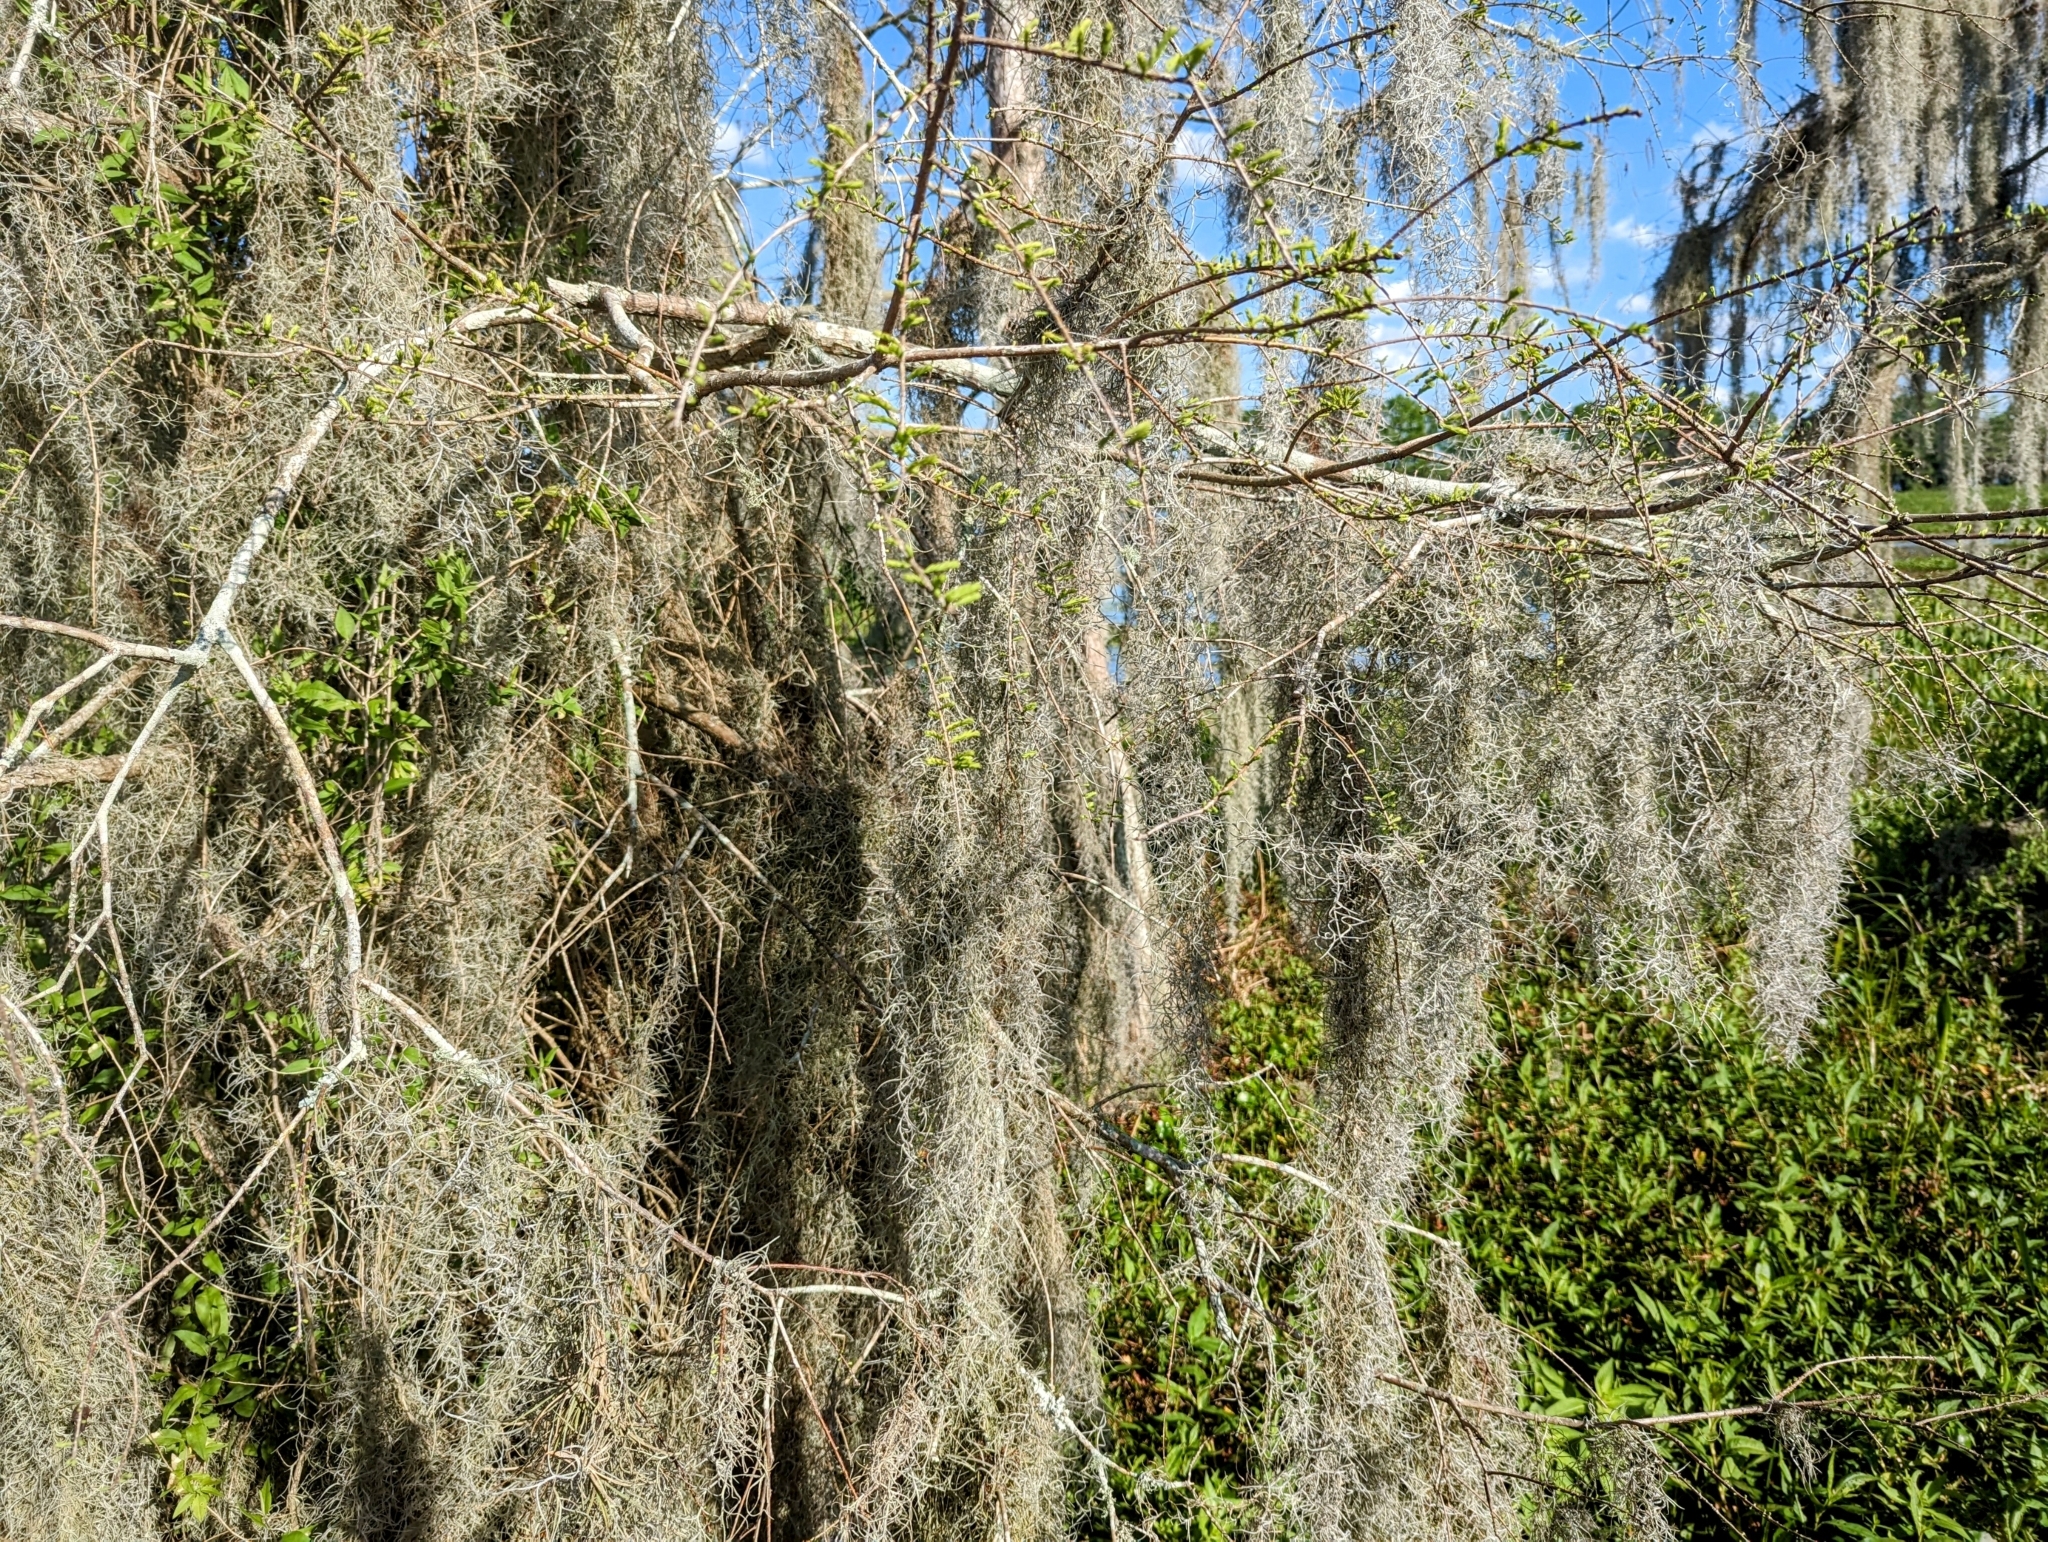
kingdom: Plantae
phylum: Tracheophyta
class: Liliopsida
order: Poales
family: Bromeliaceae
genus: Tillandsia
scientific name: Tillandsia usneoides
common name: Spanish moss
